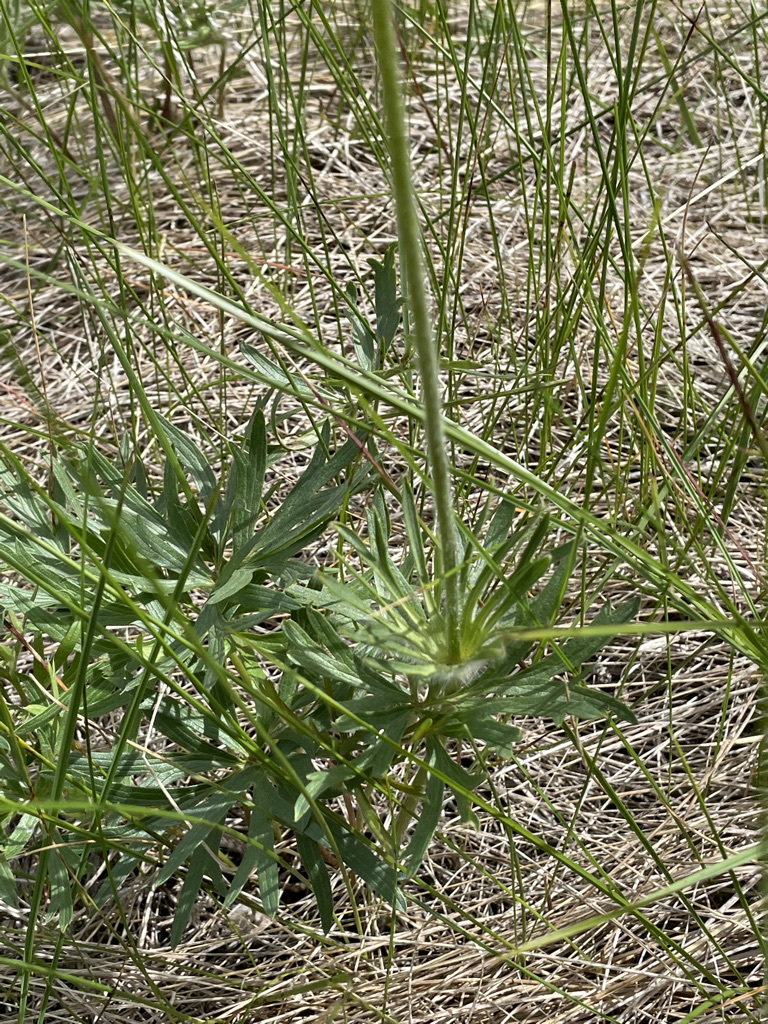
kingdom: Plantae
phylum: Tracheophyta
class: Magnoliopsida
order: Ranunculales
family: Ranunculaceae
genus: Pulsatilla
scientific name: Pulsatilla nuttalliana
